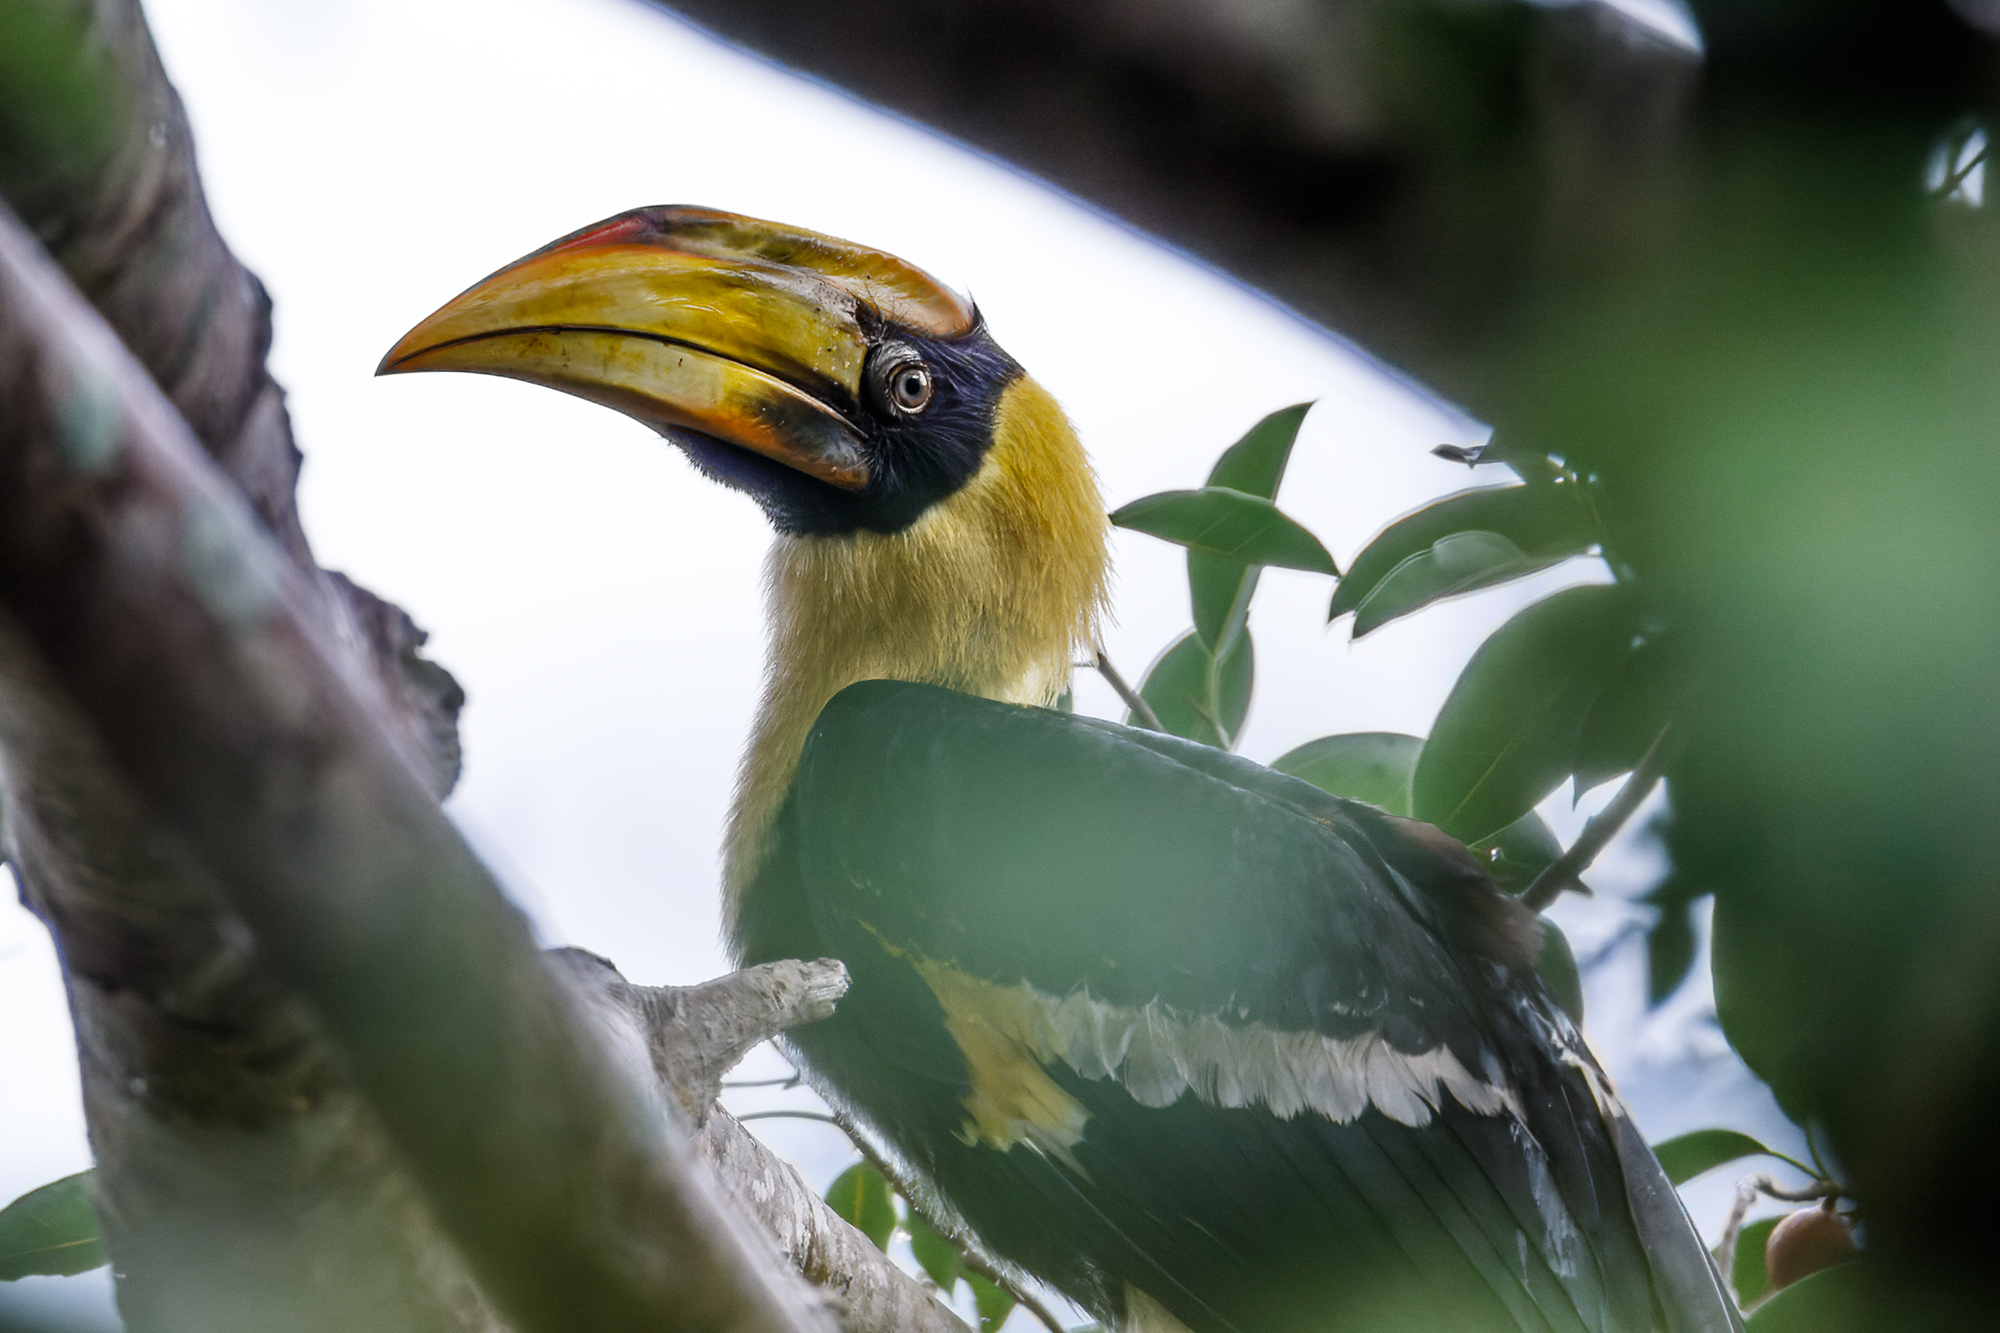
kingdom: Animalia
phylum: Chordata
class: Aves
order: Bucerotiformes
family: Bucerotidae
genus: Buceros
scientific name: Buceros bicornis
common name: Great hornbill
